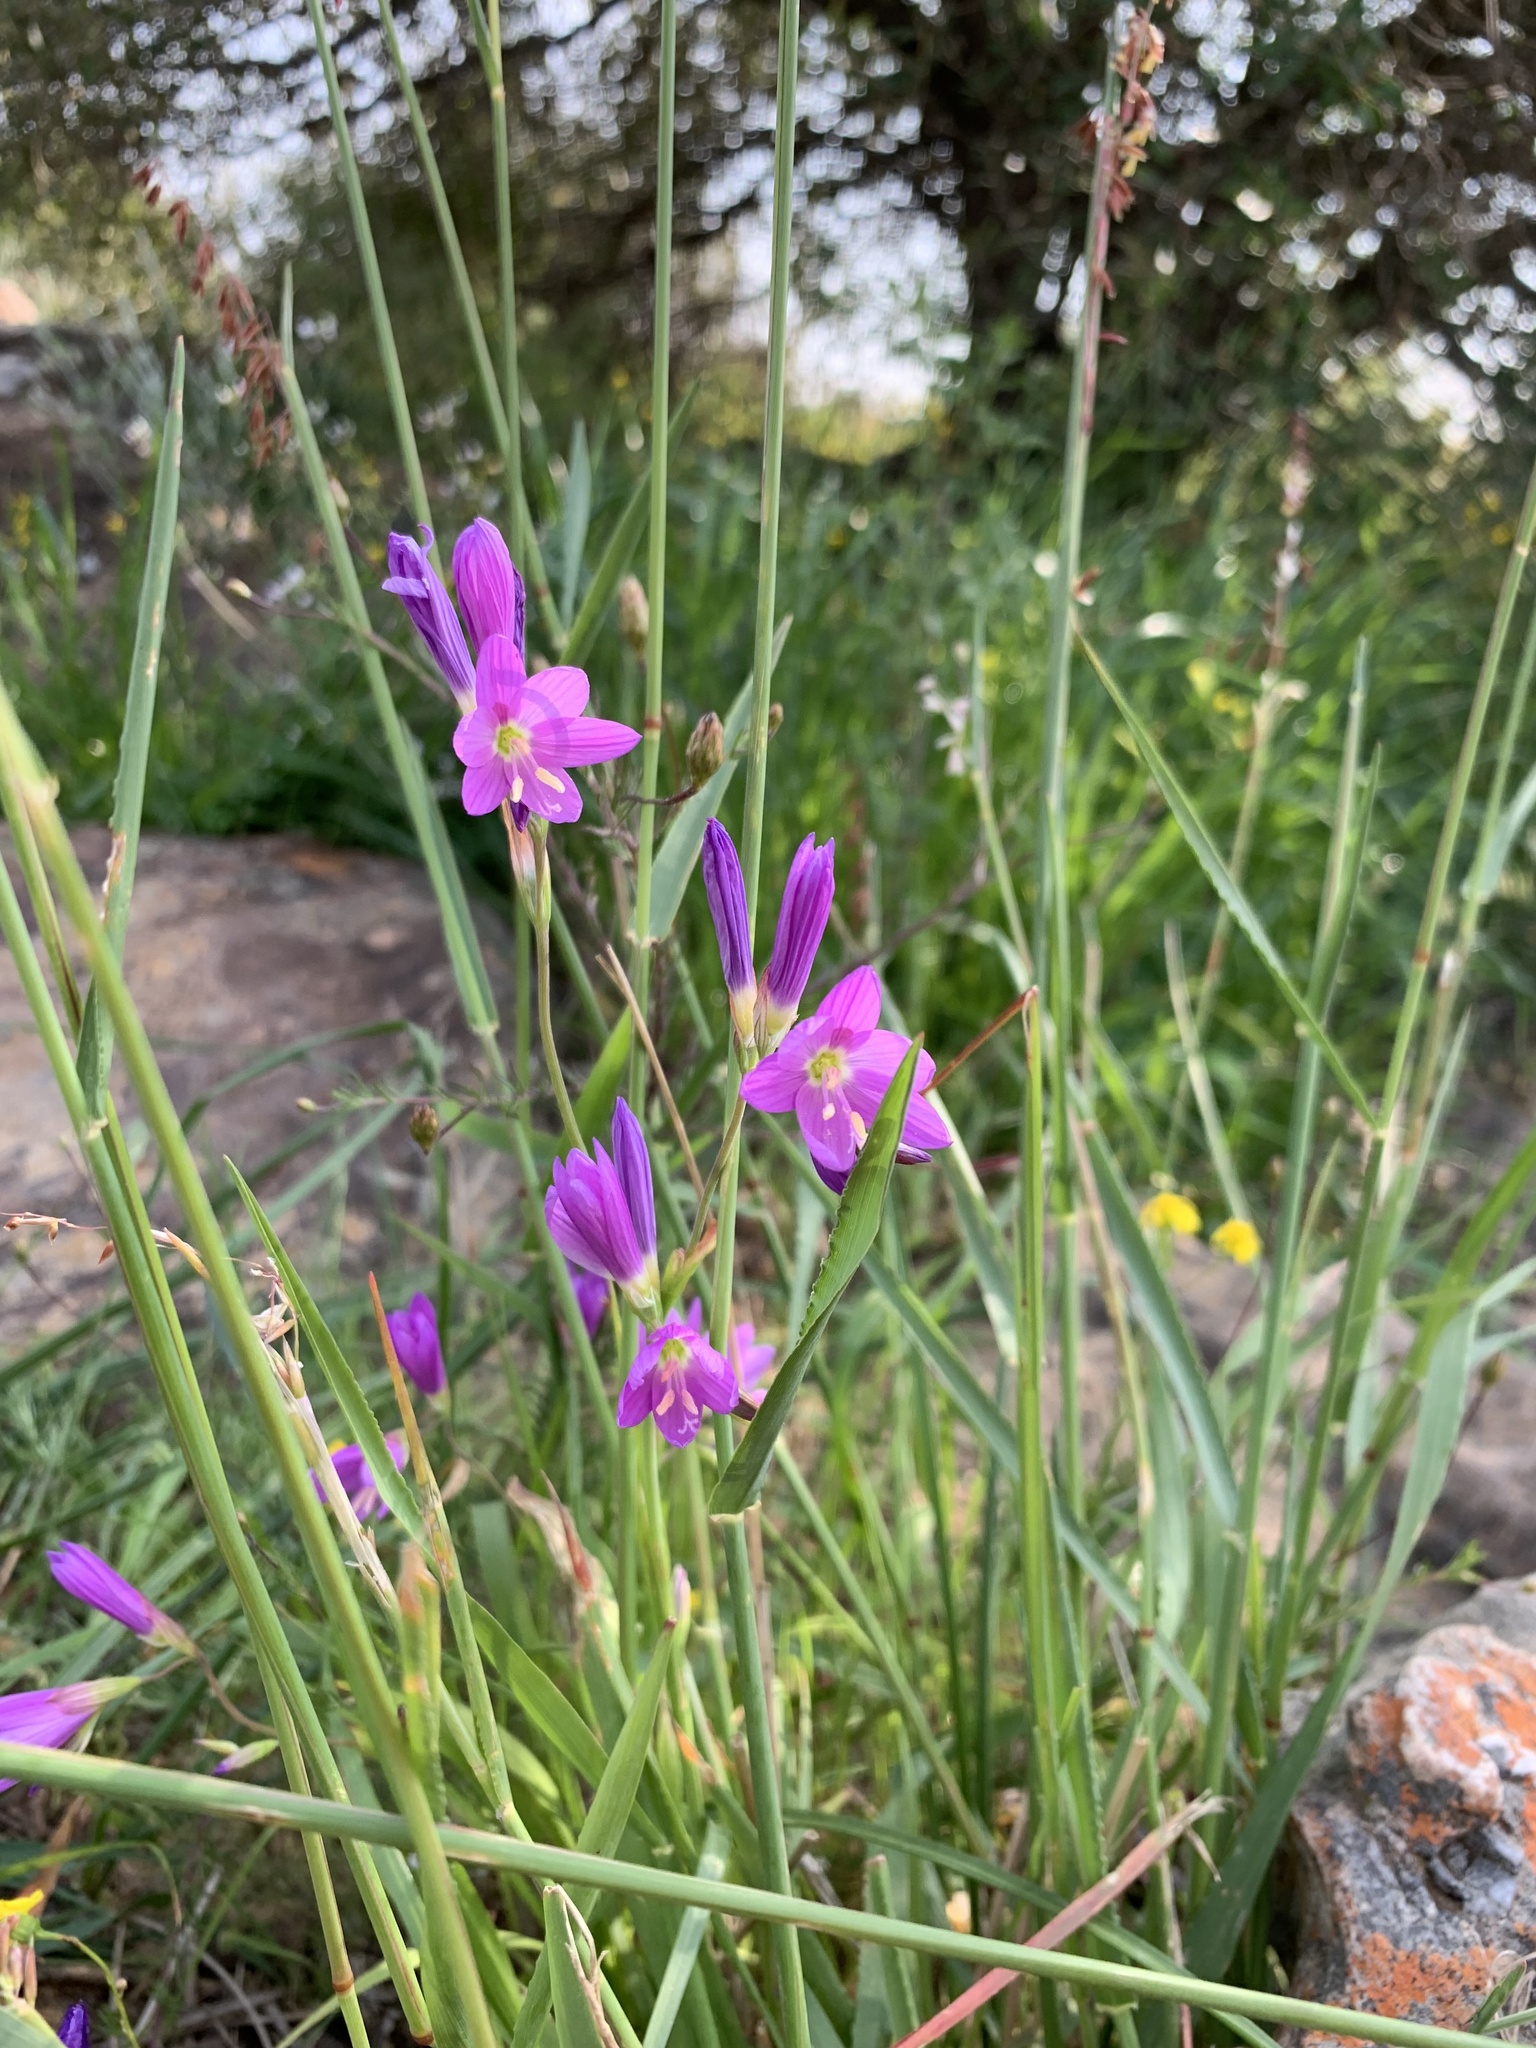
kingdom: Plantae
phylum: Tracheophyta
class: Liliopsida
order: Asparagales
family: Iridaceae
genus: Geissorhiza
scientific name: Geissorhiza inaequalis
